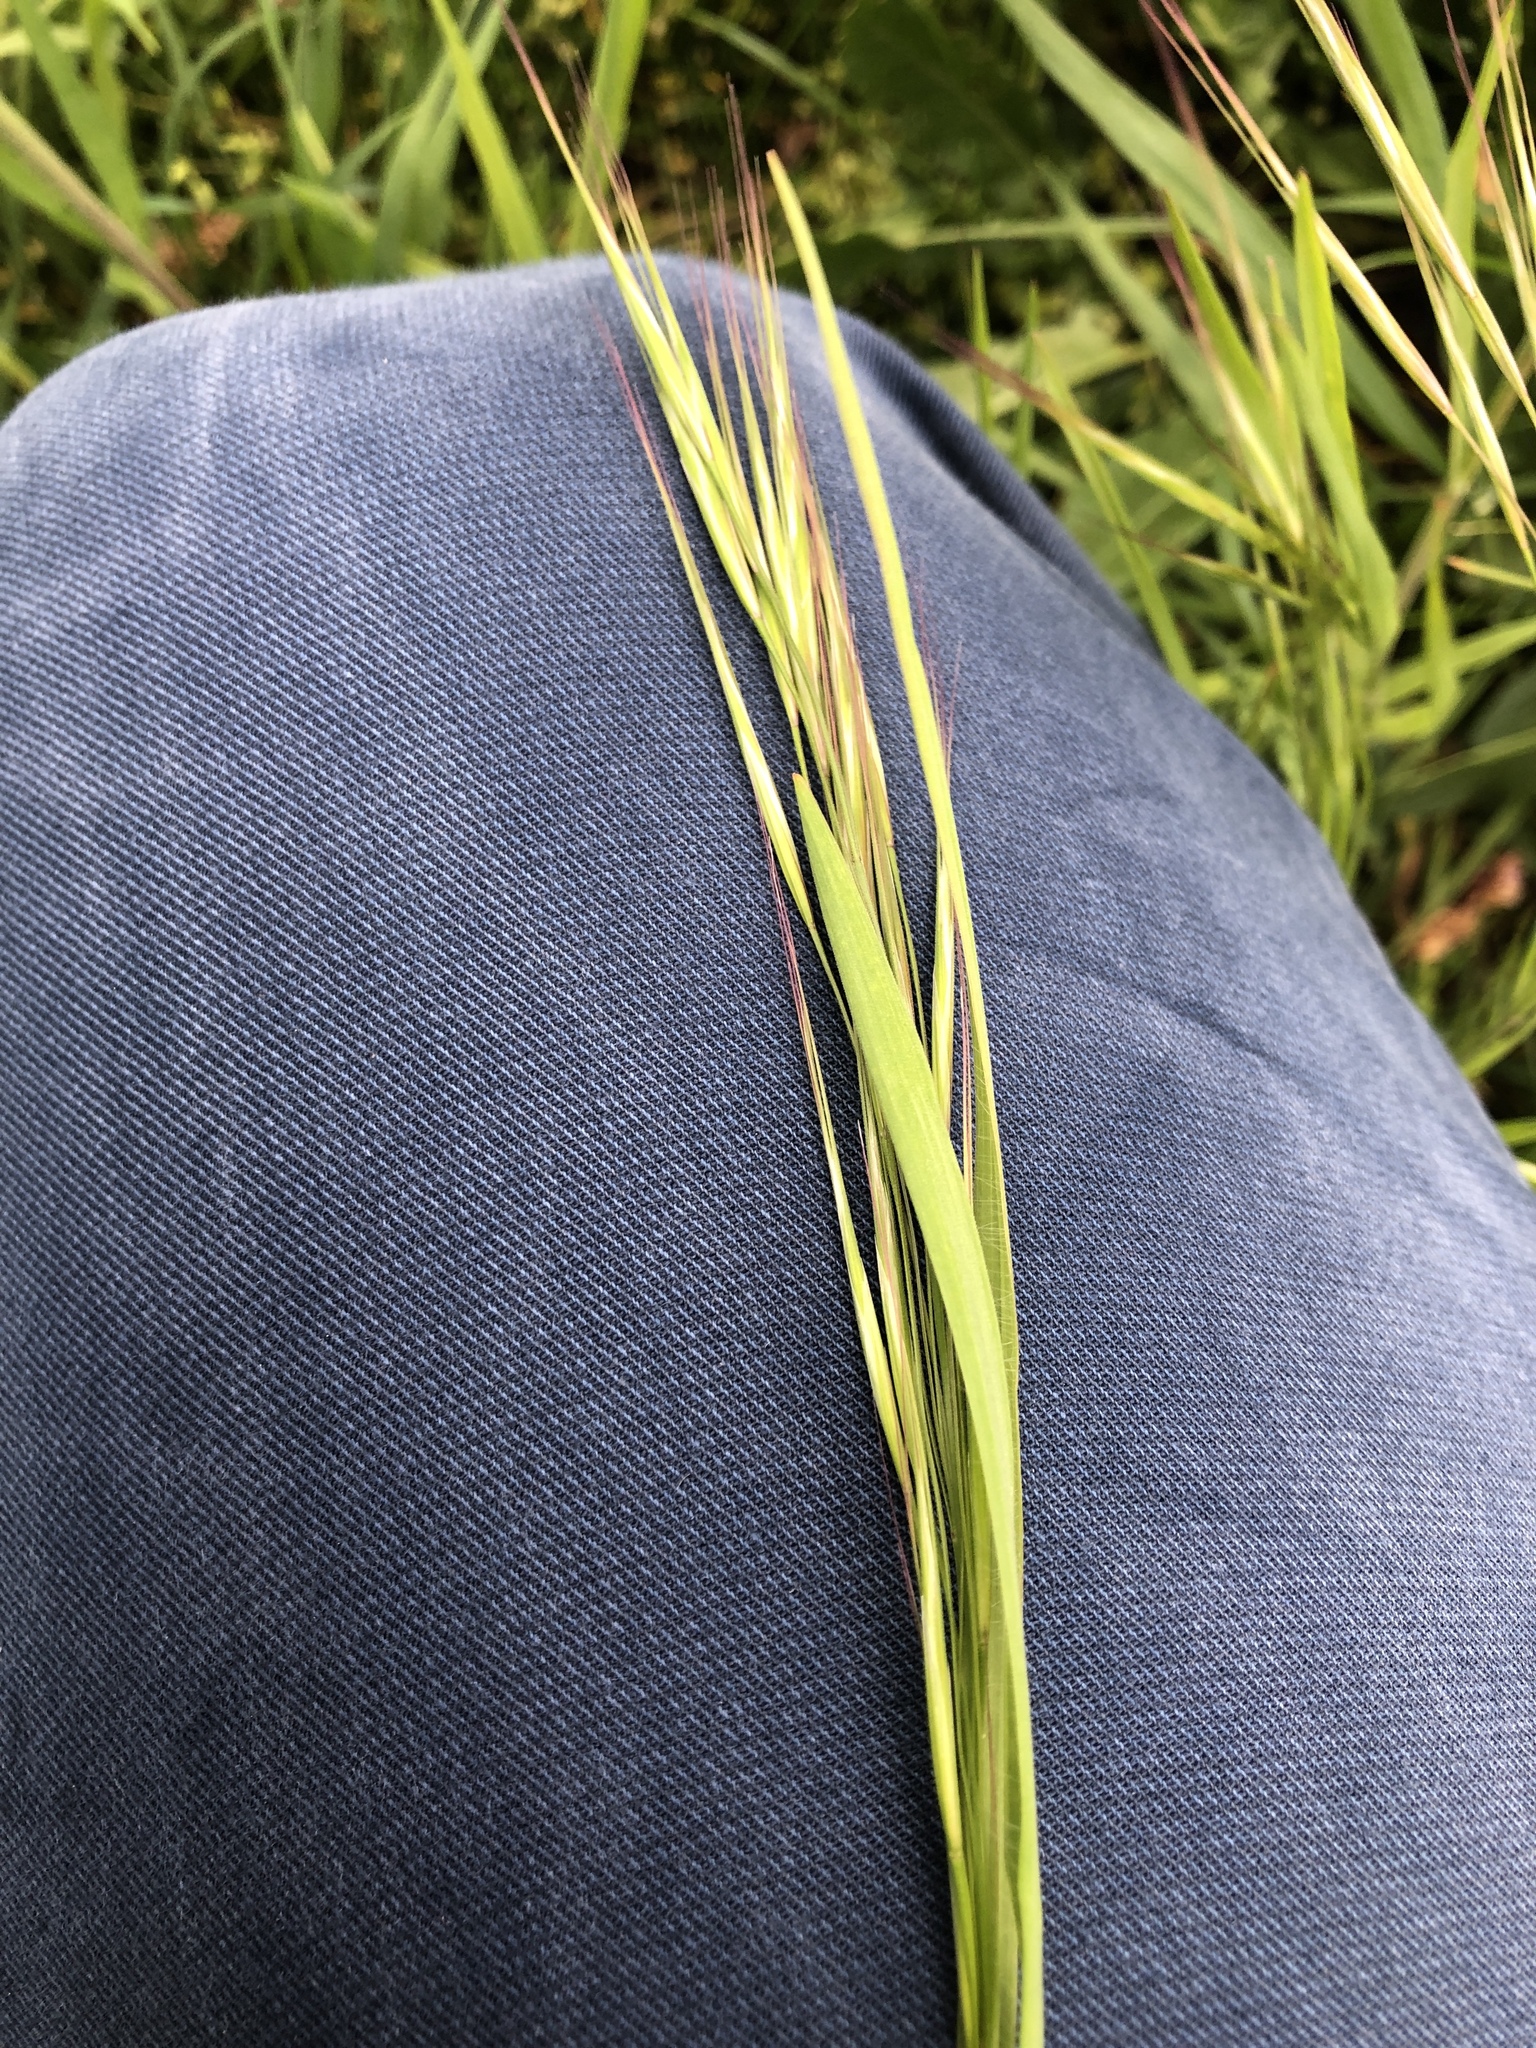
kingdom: Plantae
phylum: Tracheophyta
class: Liliopsida
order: Poales
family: Poaceae
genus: Bromus
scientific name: Bromus sterilis
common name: Poverty brome
